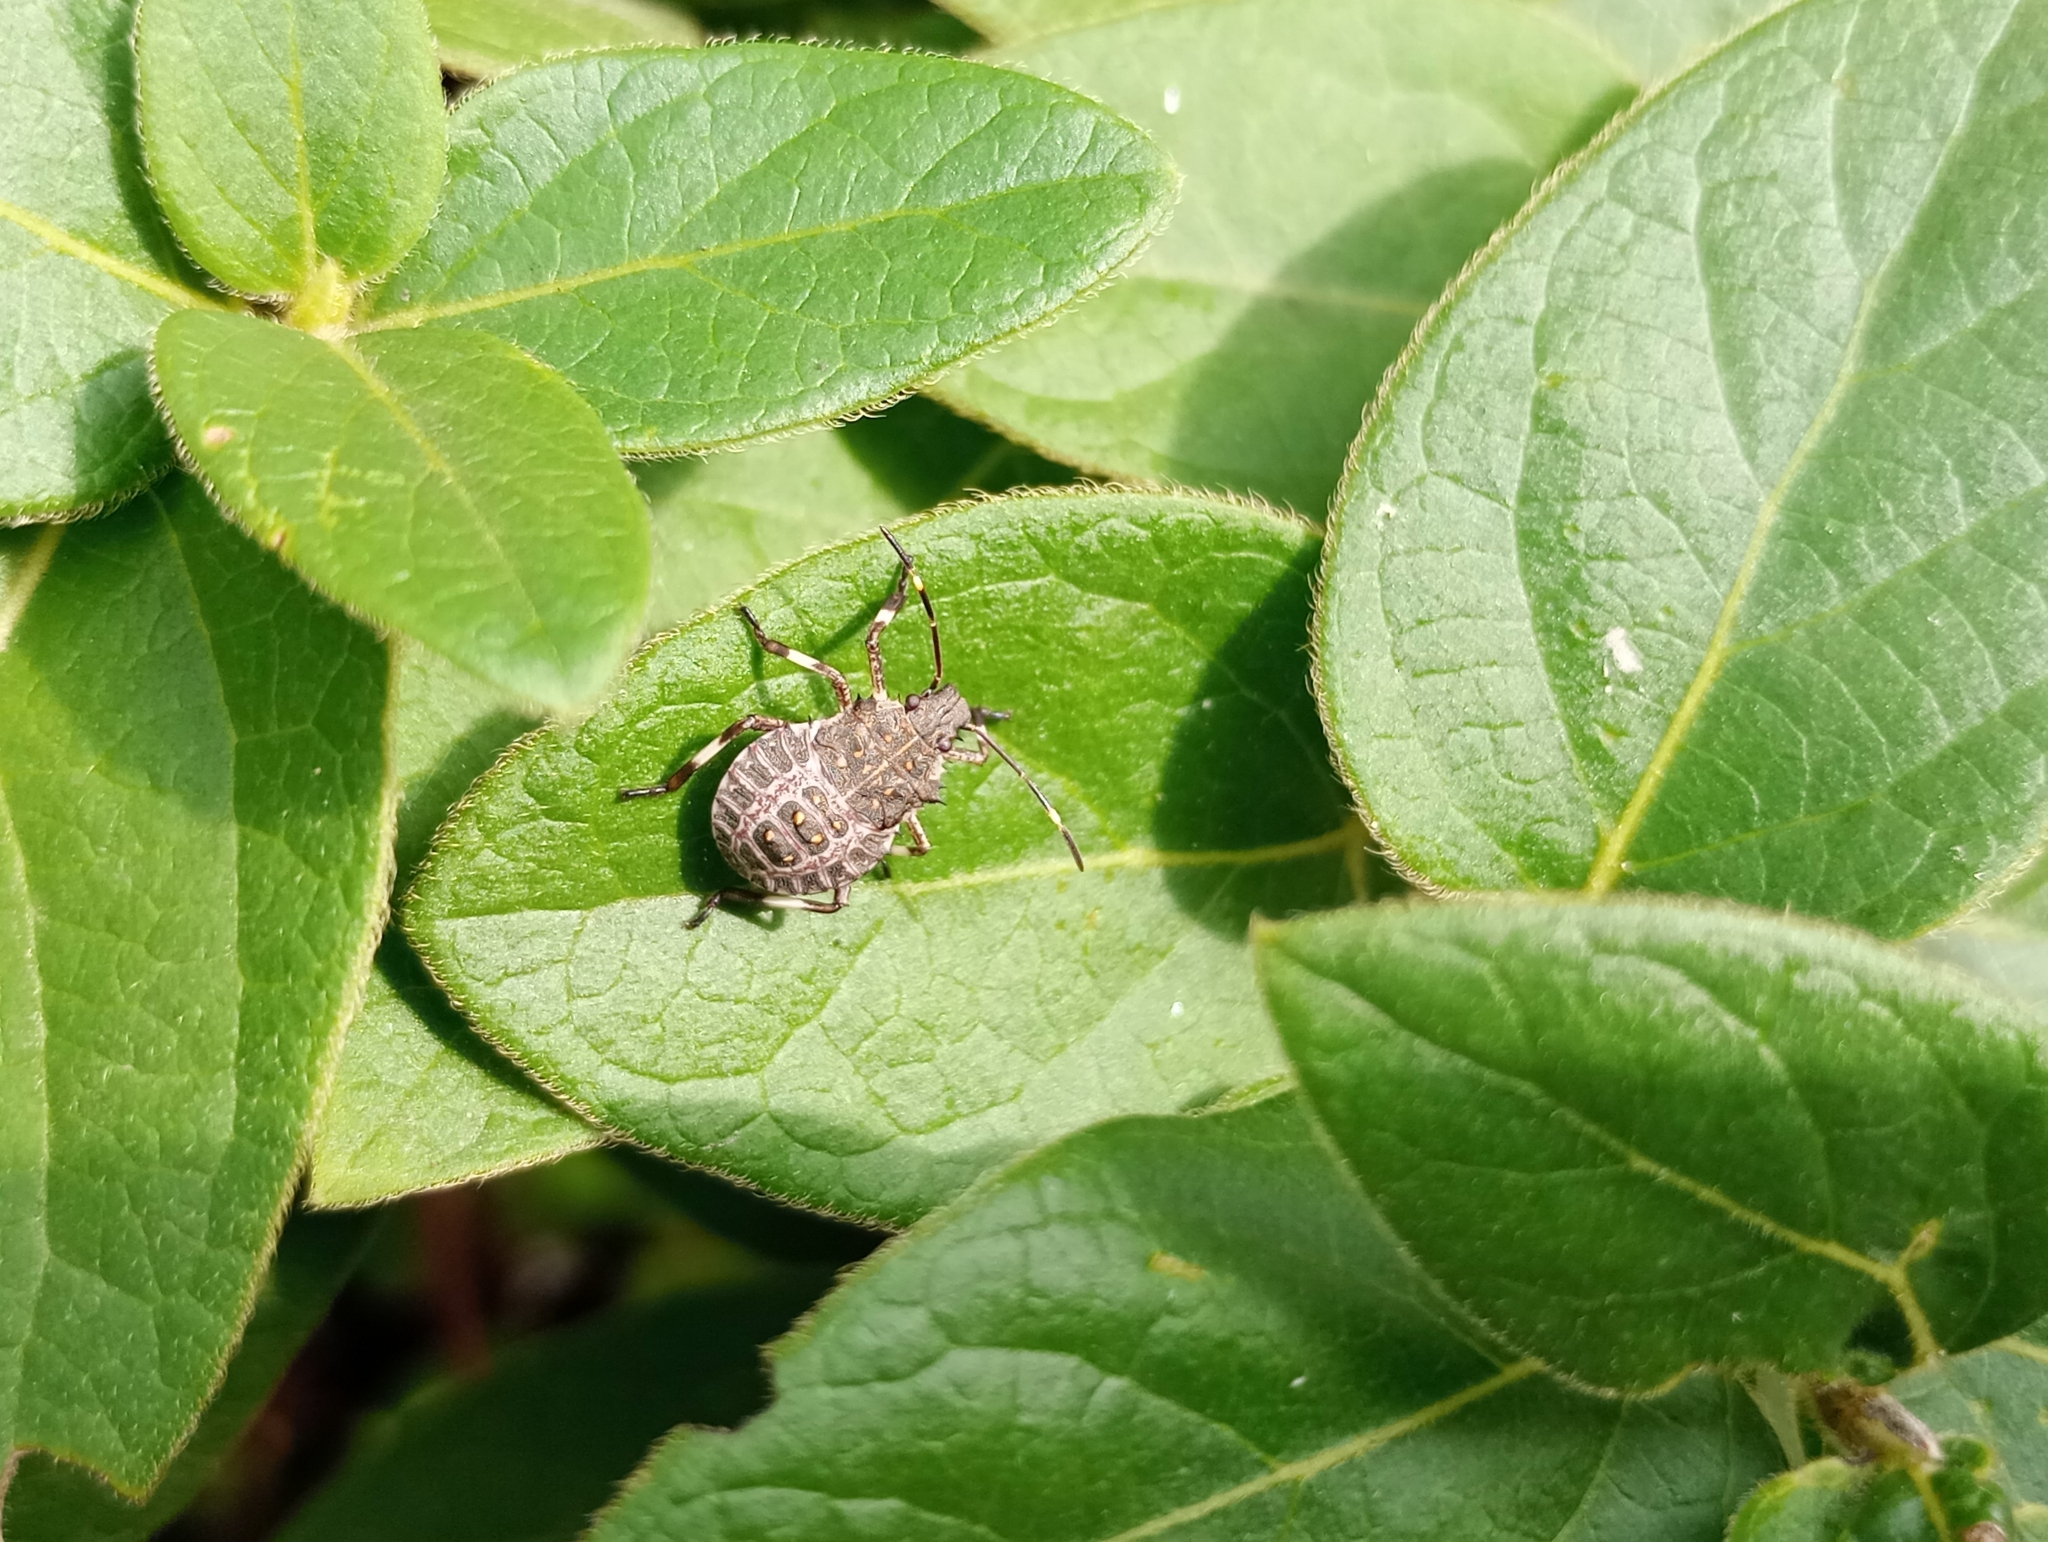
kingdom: Animalia
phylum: Arthropoda
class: Insecta
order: Hemiptera
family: Pentatomidae
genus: Halyomorpha
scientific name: Halyomorpha halys
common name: Brown marmorated stink bug
